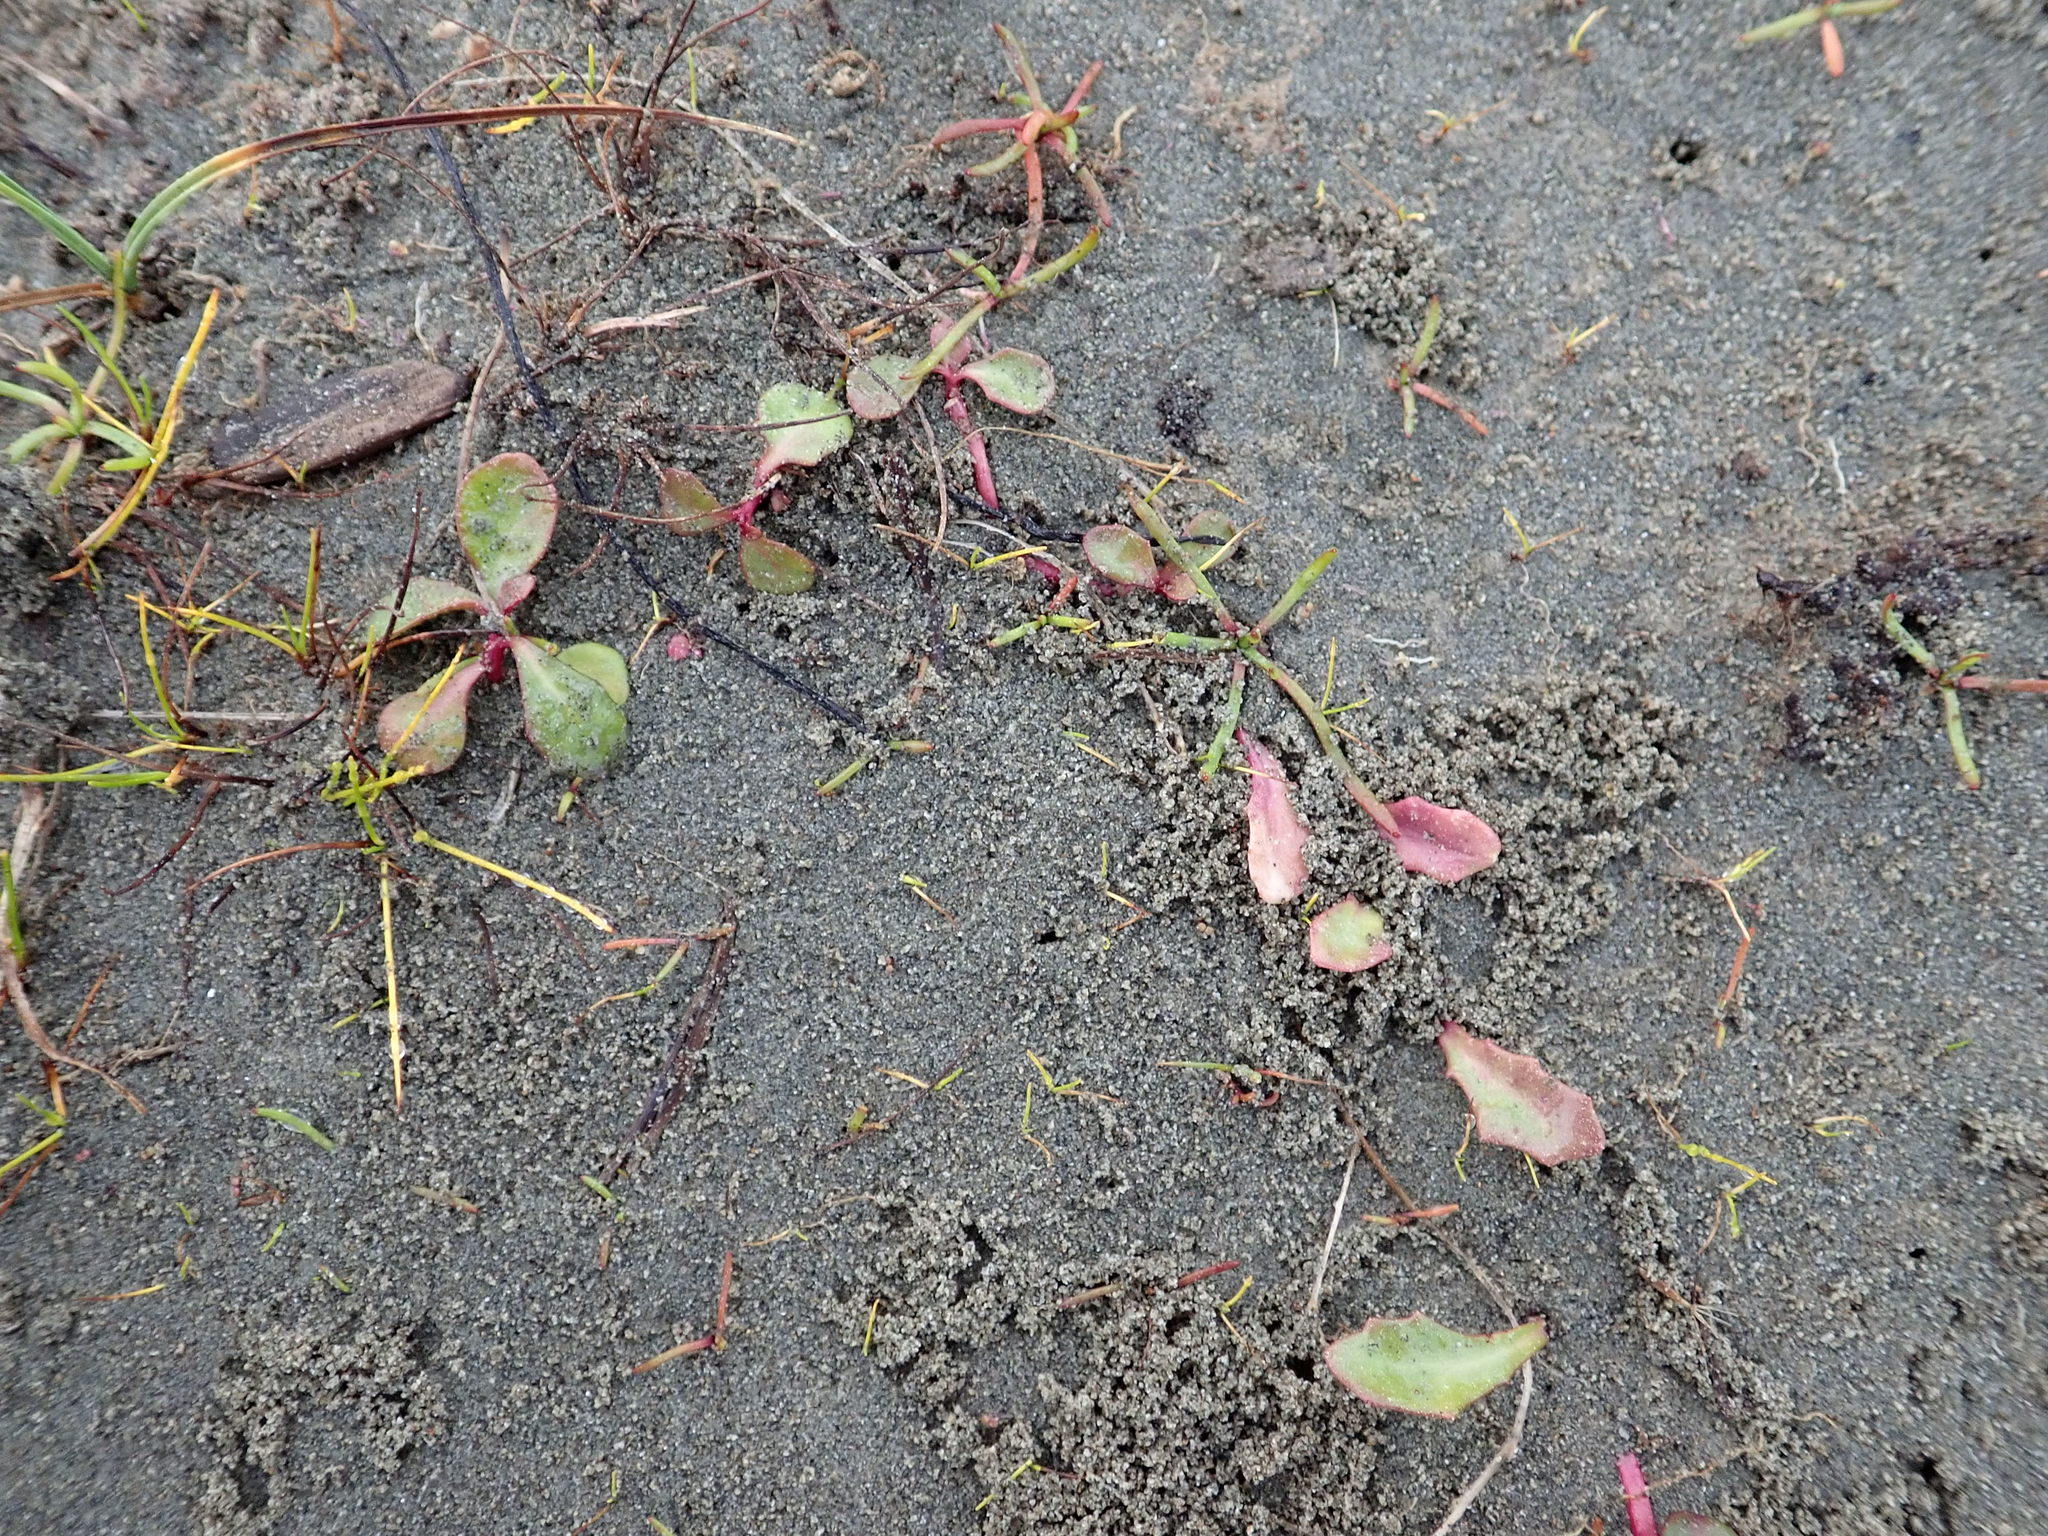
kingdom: Plantae
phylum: Tracheophyta
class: Magnoliopsida
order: Asterales
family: Campanulaceae
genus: Lobelia
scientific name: Lobelia anceps
